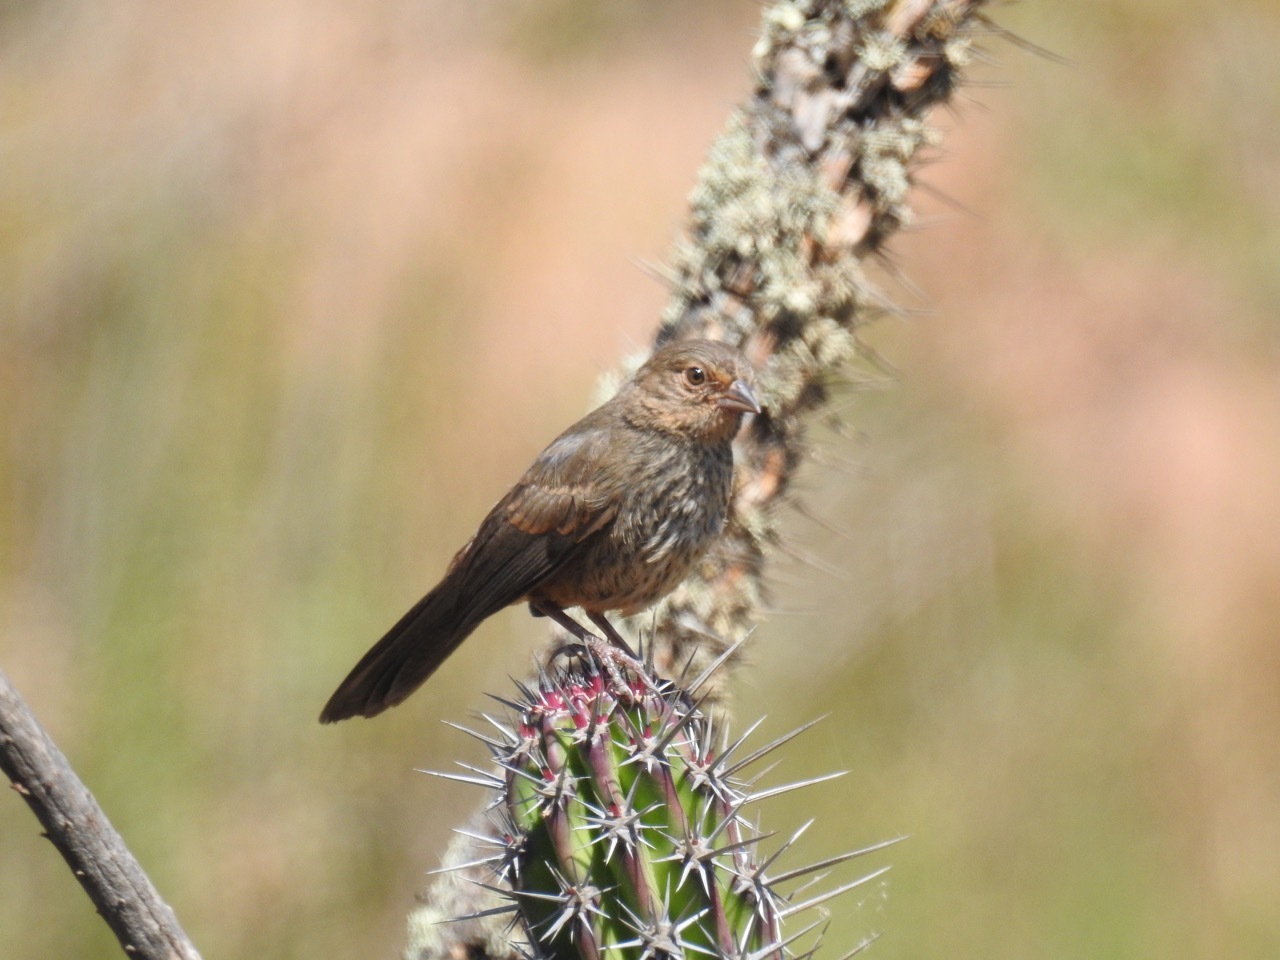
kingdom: Animalia
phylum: Chordata
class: Aves
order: Passeriformes
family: Passerellidae
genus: Melozone
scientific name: Melozone crissalis
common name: California towhee
